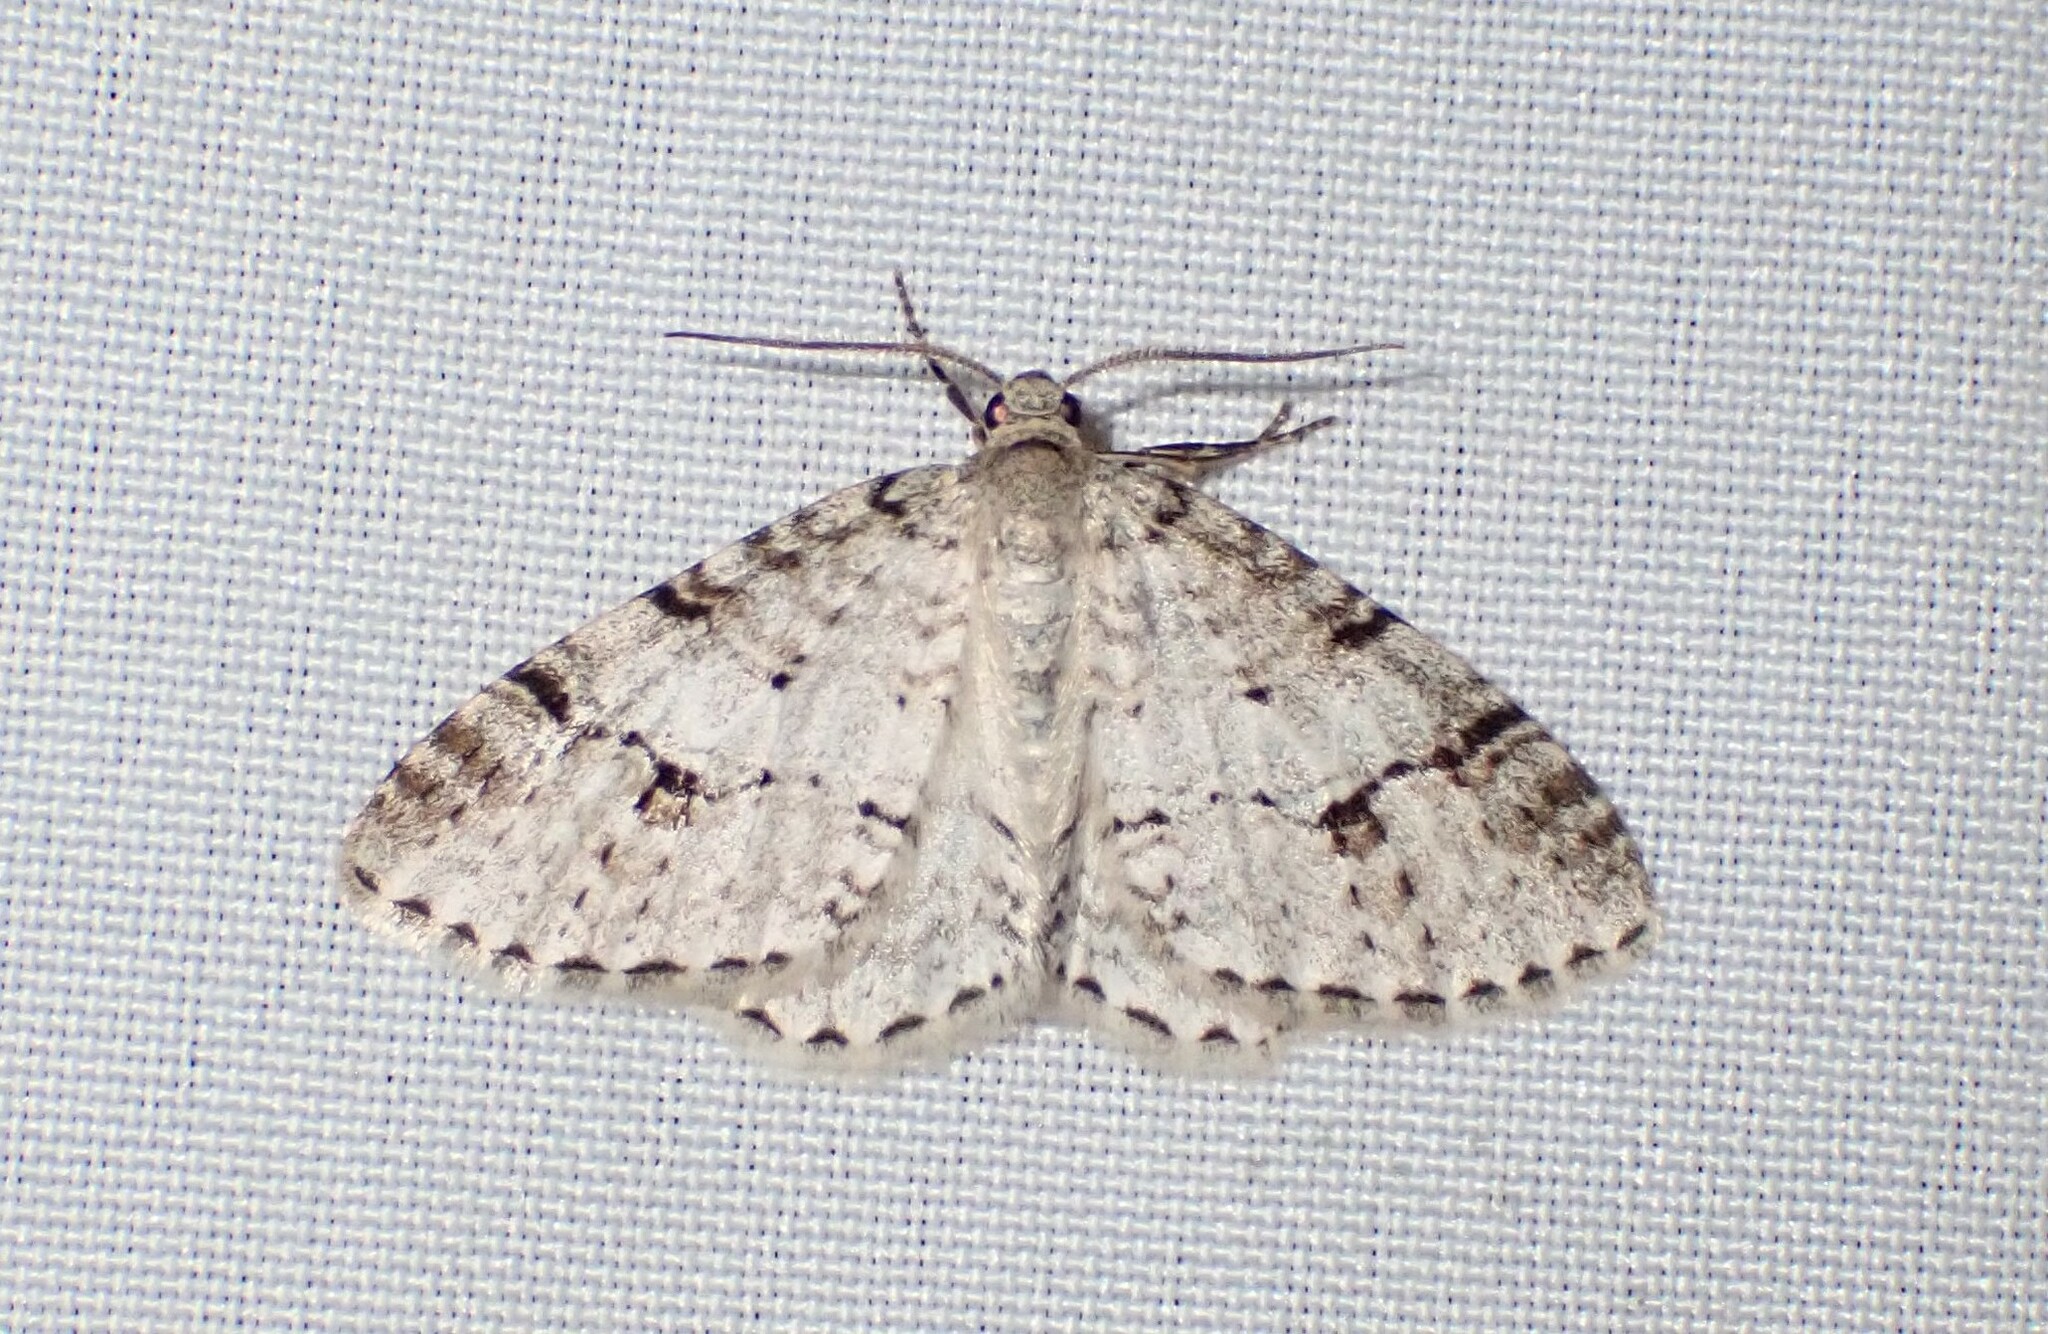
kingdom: Animalia
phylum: Arthropoda
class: Insecta
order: Lepidoptera
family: Geometridae
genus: Venusia
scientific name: Venusia cambrica
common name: Welsh wave
